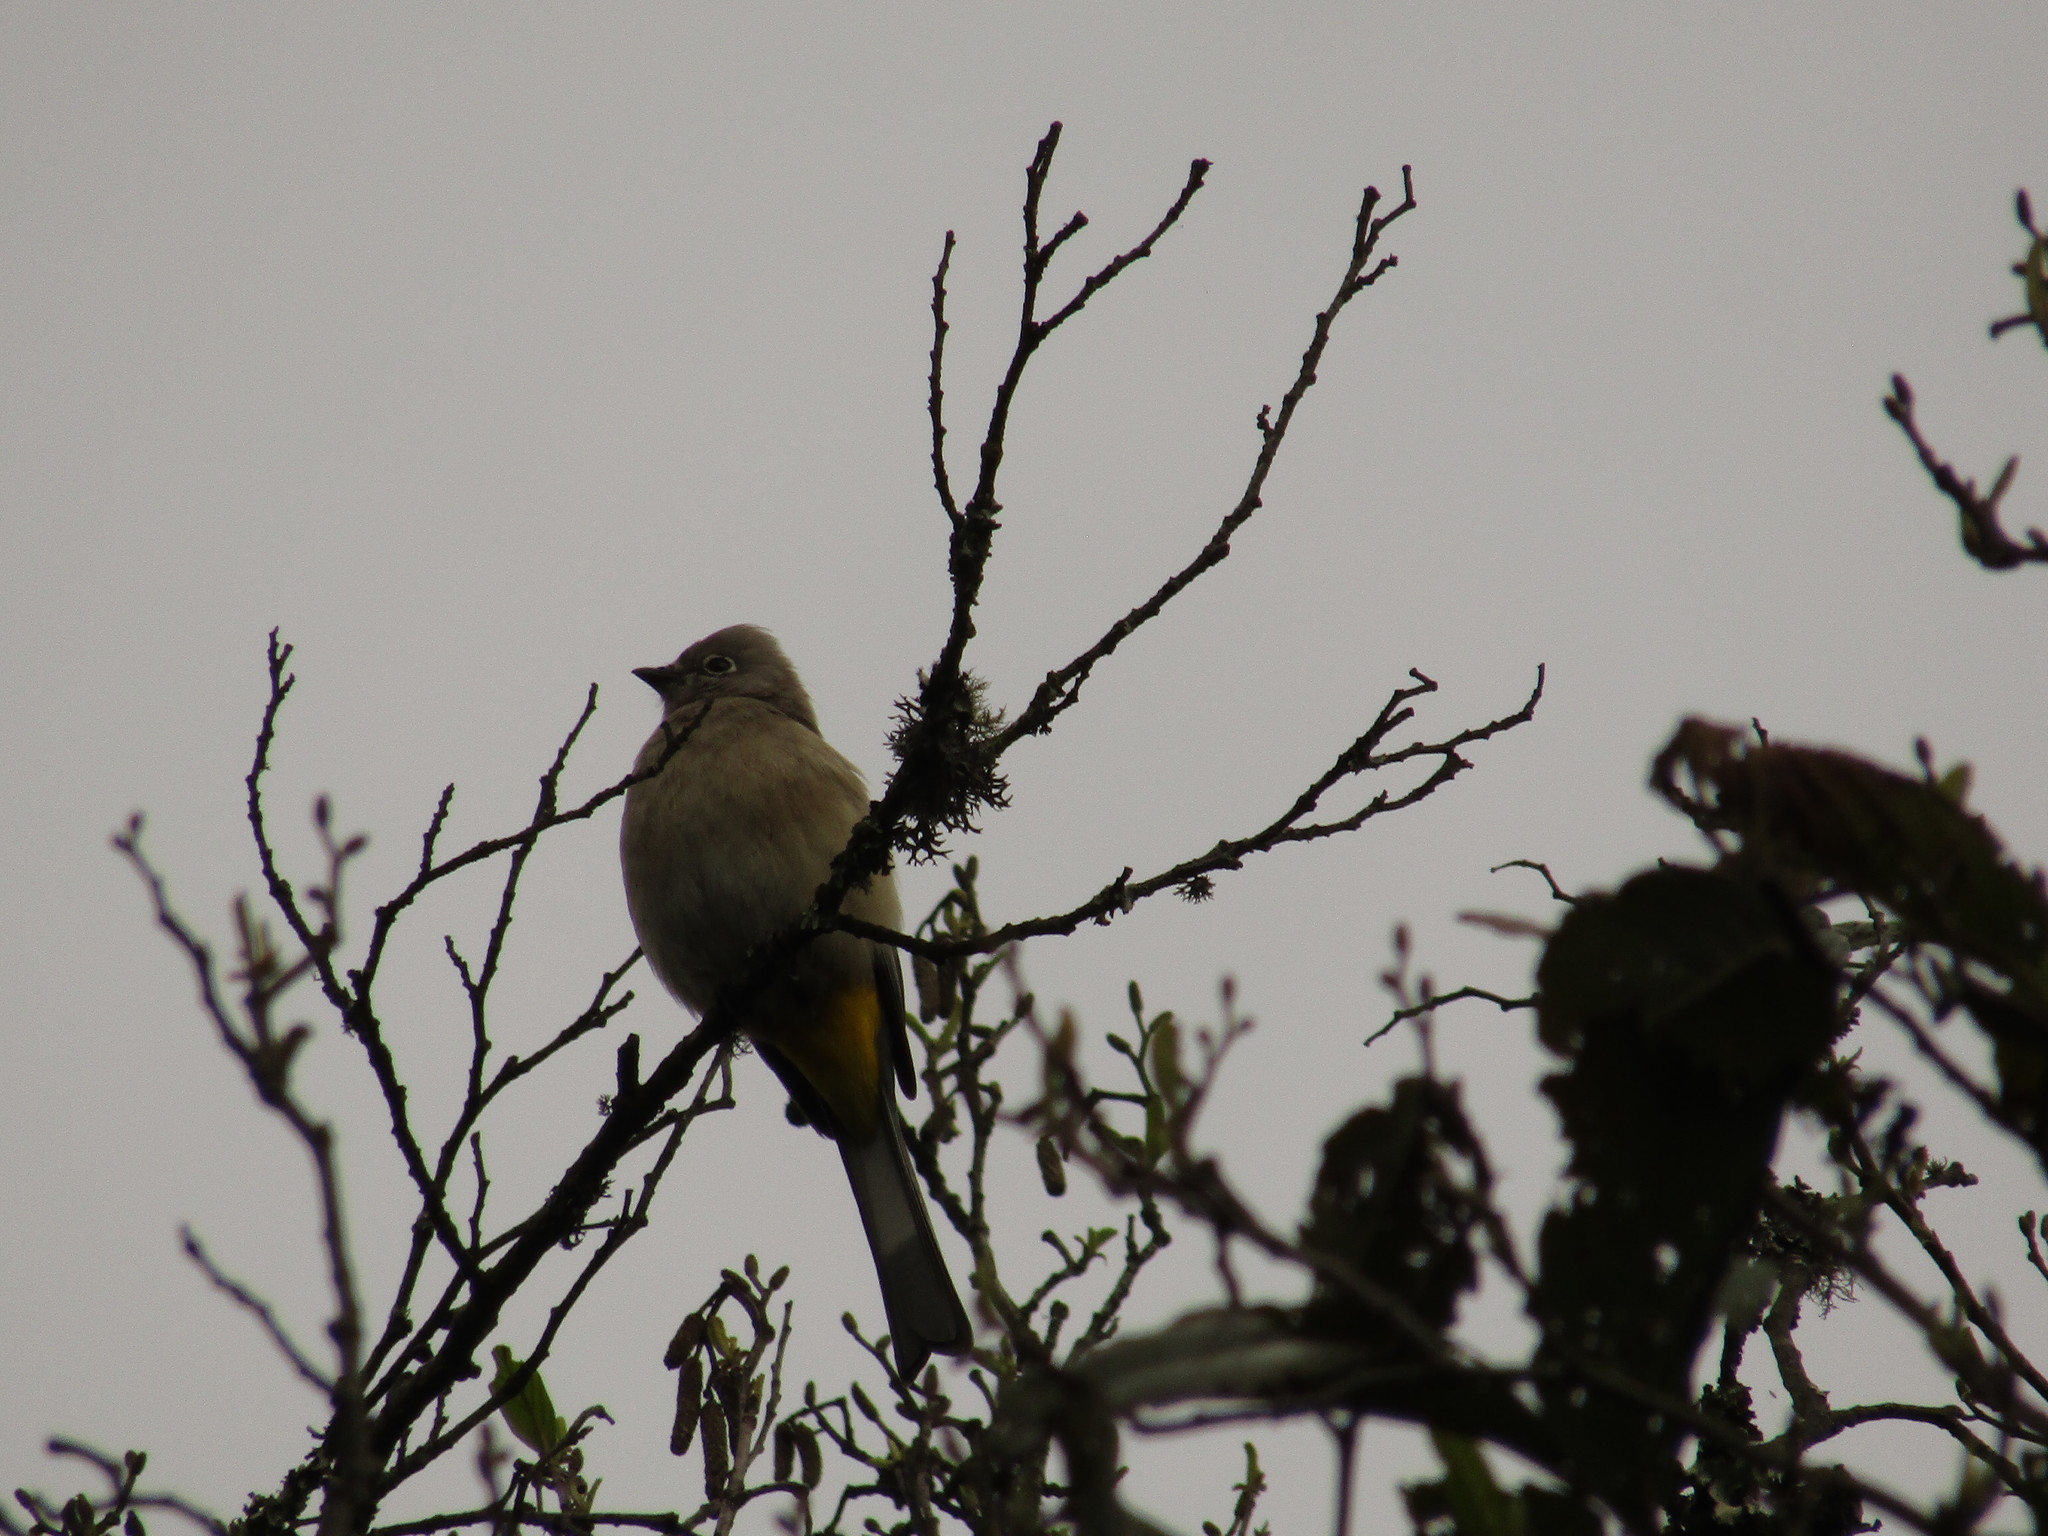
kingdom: Animalia
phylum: Chordata
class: Aves
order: Passeriformes
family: Ptilogonatidae
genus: Ptilogonys
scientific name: Ptilogonys cinereus
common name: Gray silky-flycatcher
